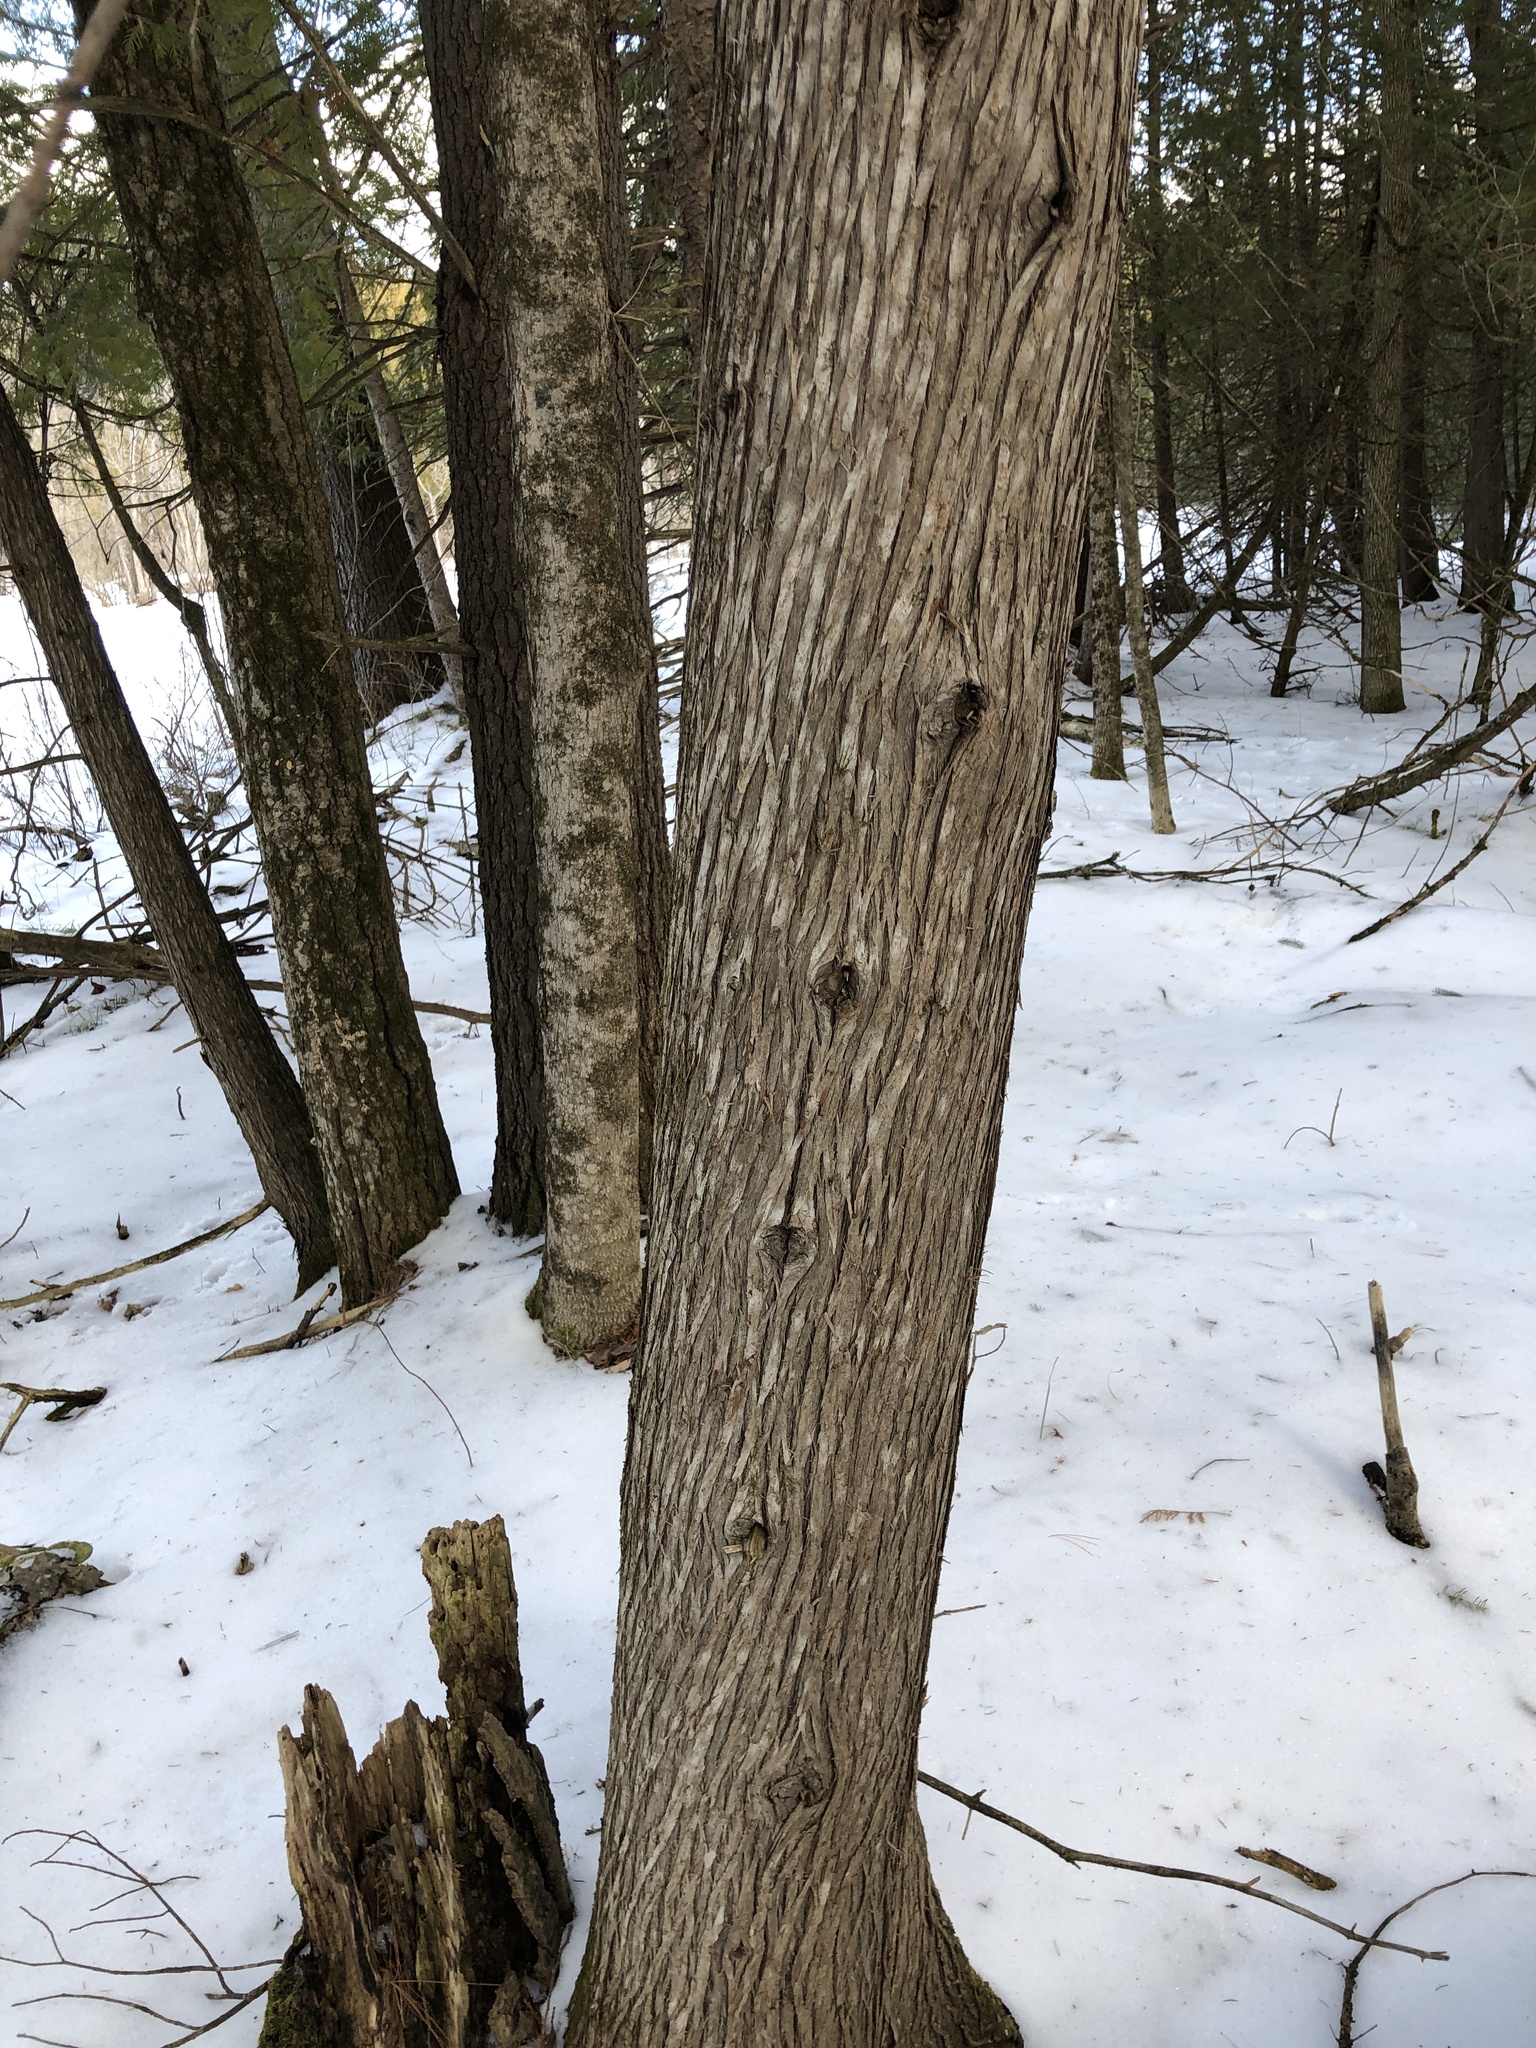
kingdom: Plantae
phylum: Tracheophyta
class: Pinopsida
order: Pinales
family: Cupressaceae
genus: Thuja
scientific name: Thuja occidentalis
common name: Northern white-cedar
